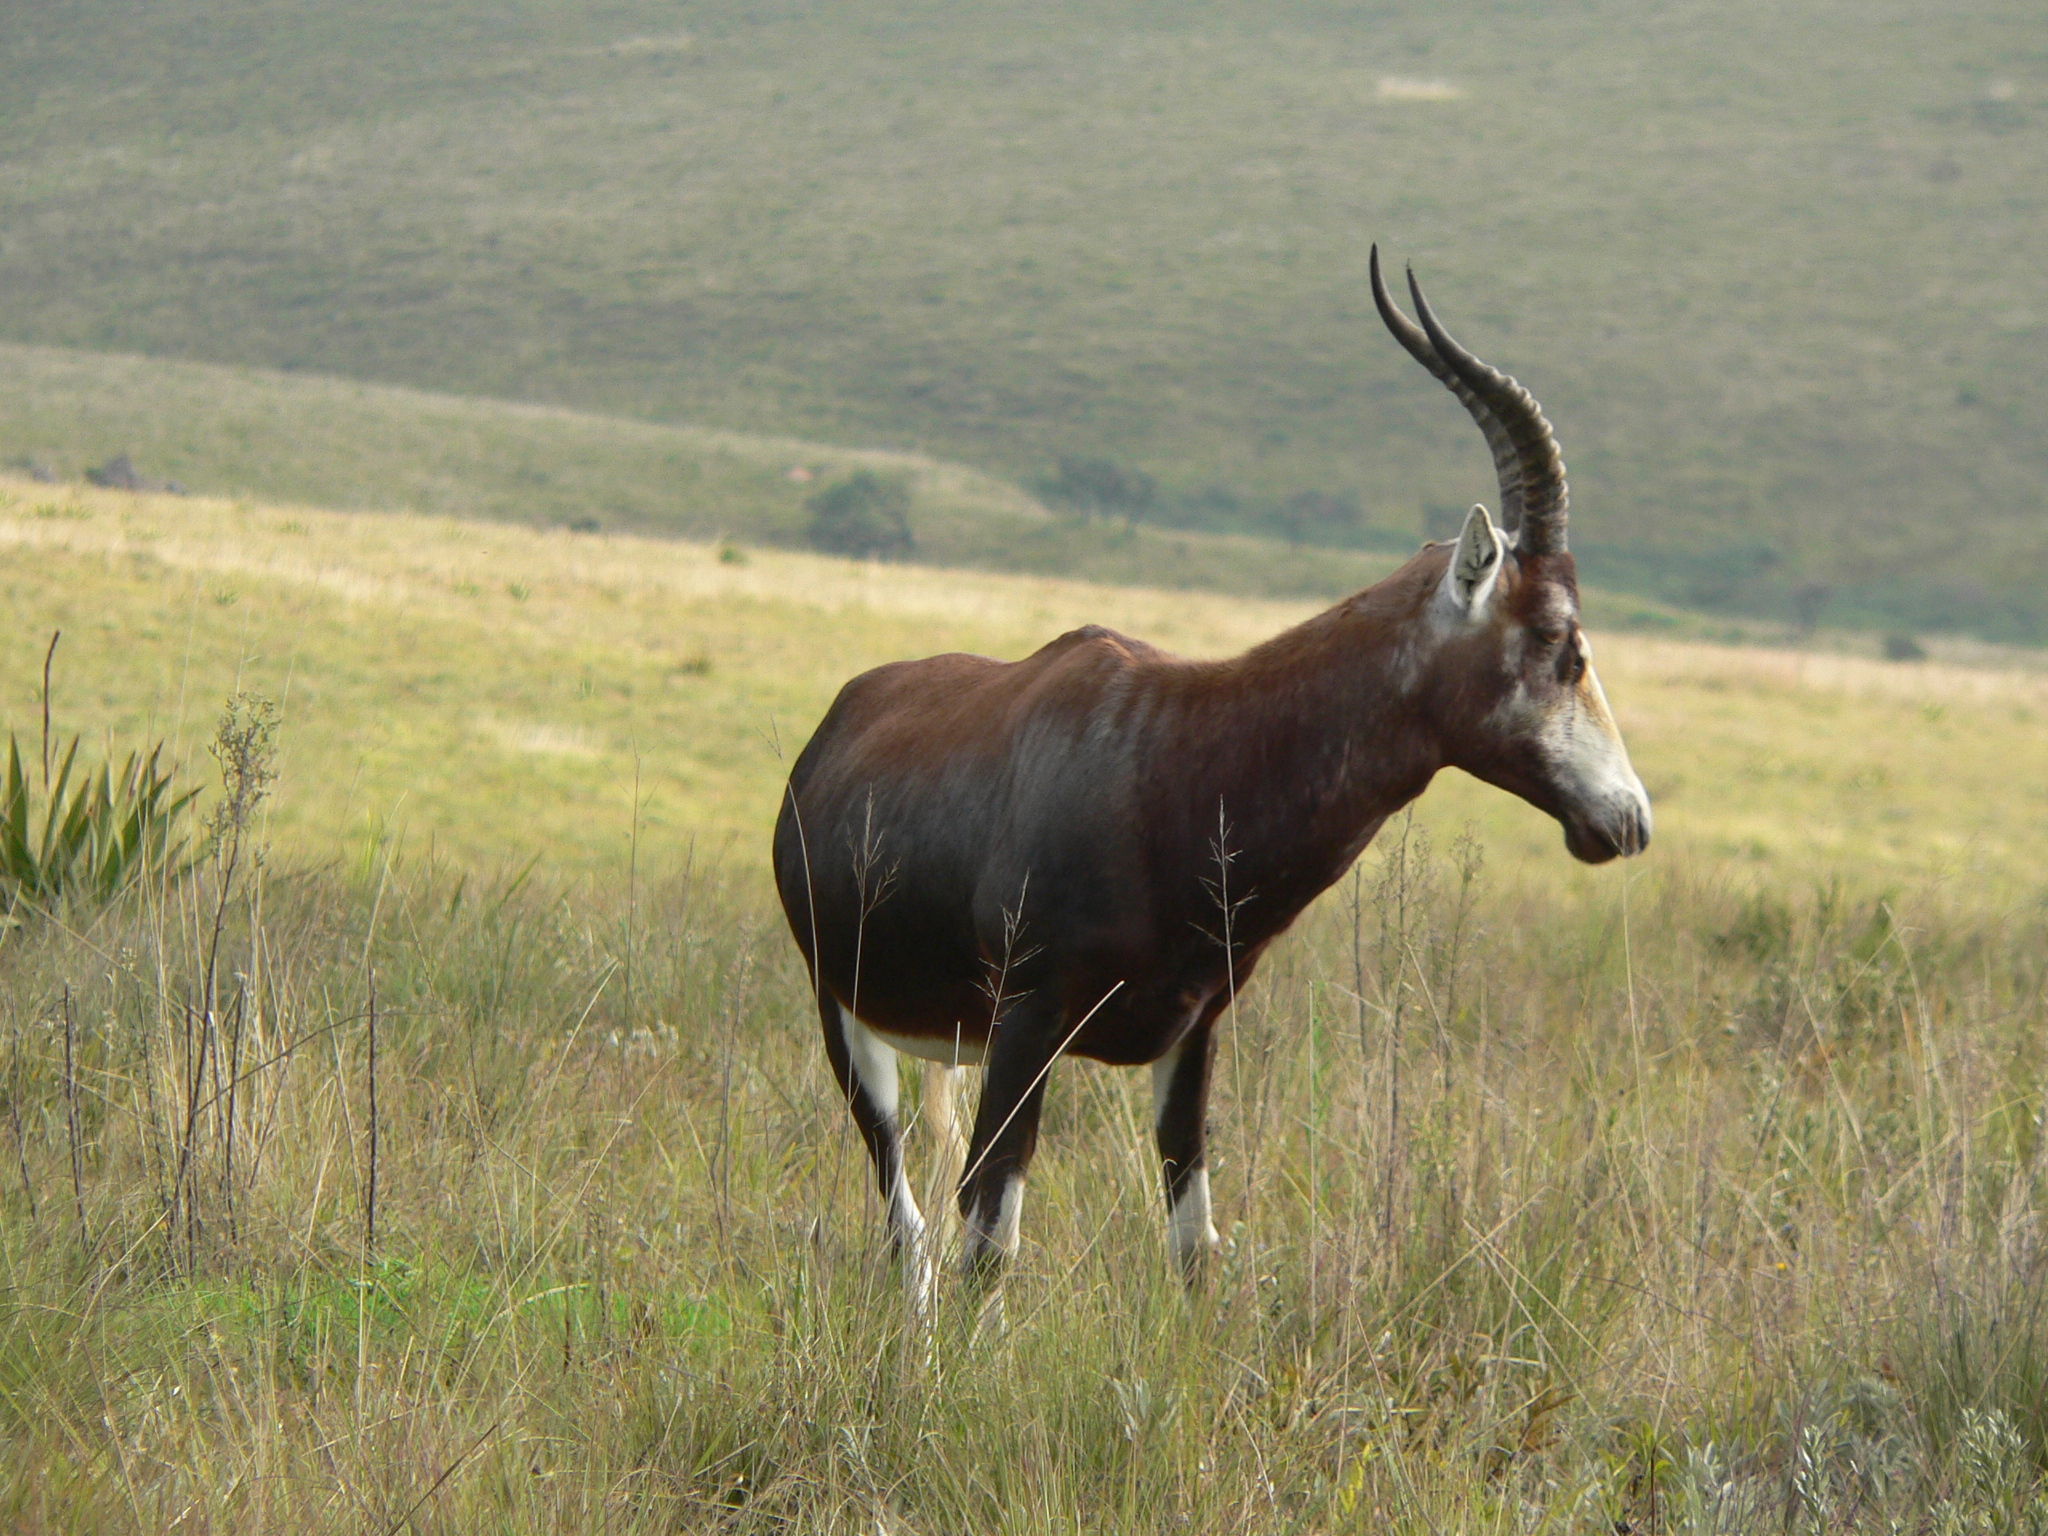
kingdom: Animalia
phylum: Chordata
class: Mammalia
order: Artiodactyla
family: Bovidae
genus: Damaliscus
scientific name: Damaliscus pygargus
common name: Bontebok
